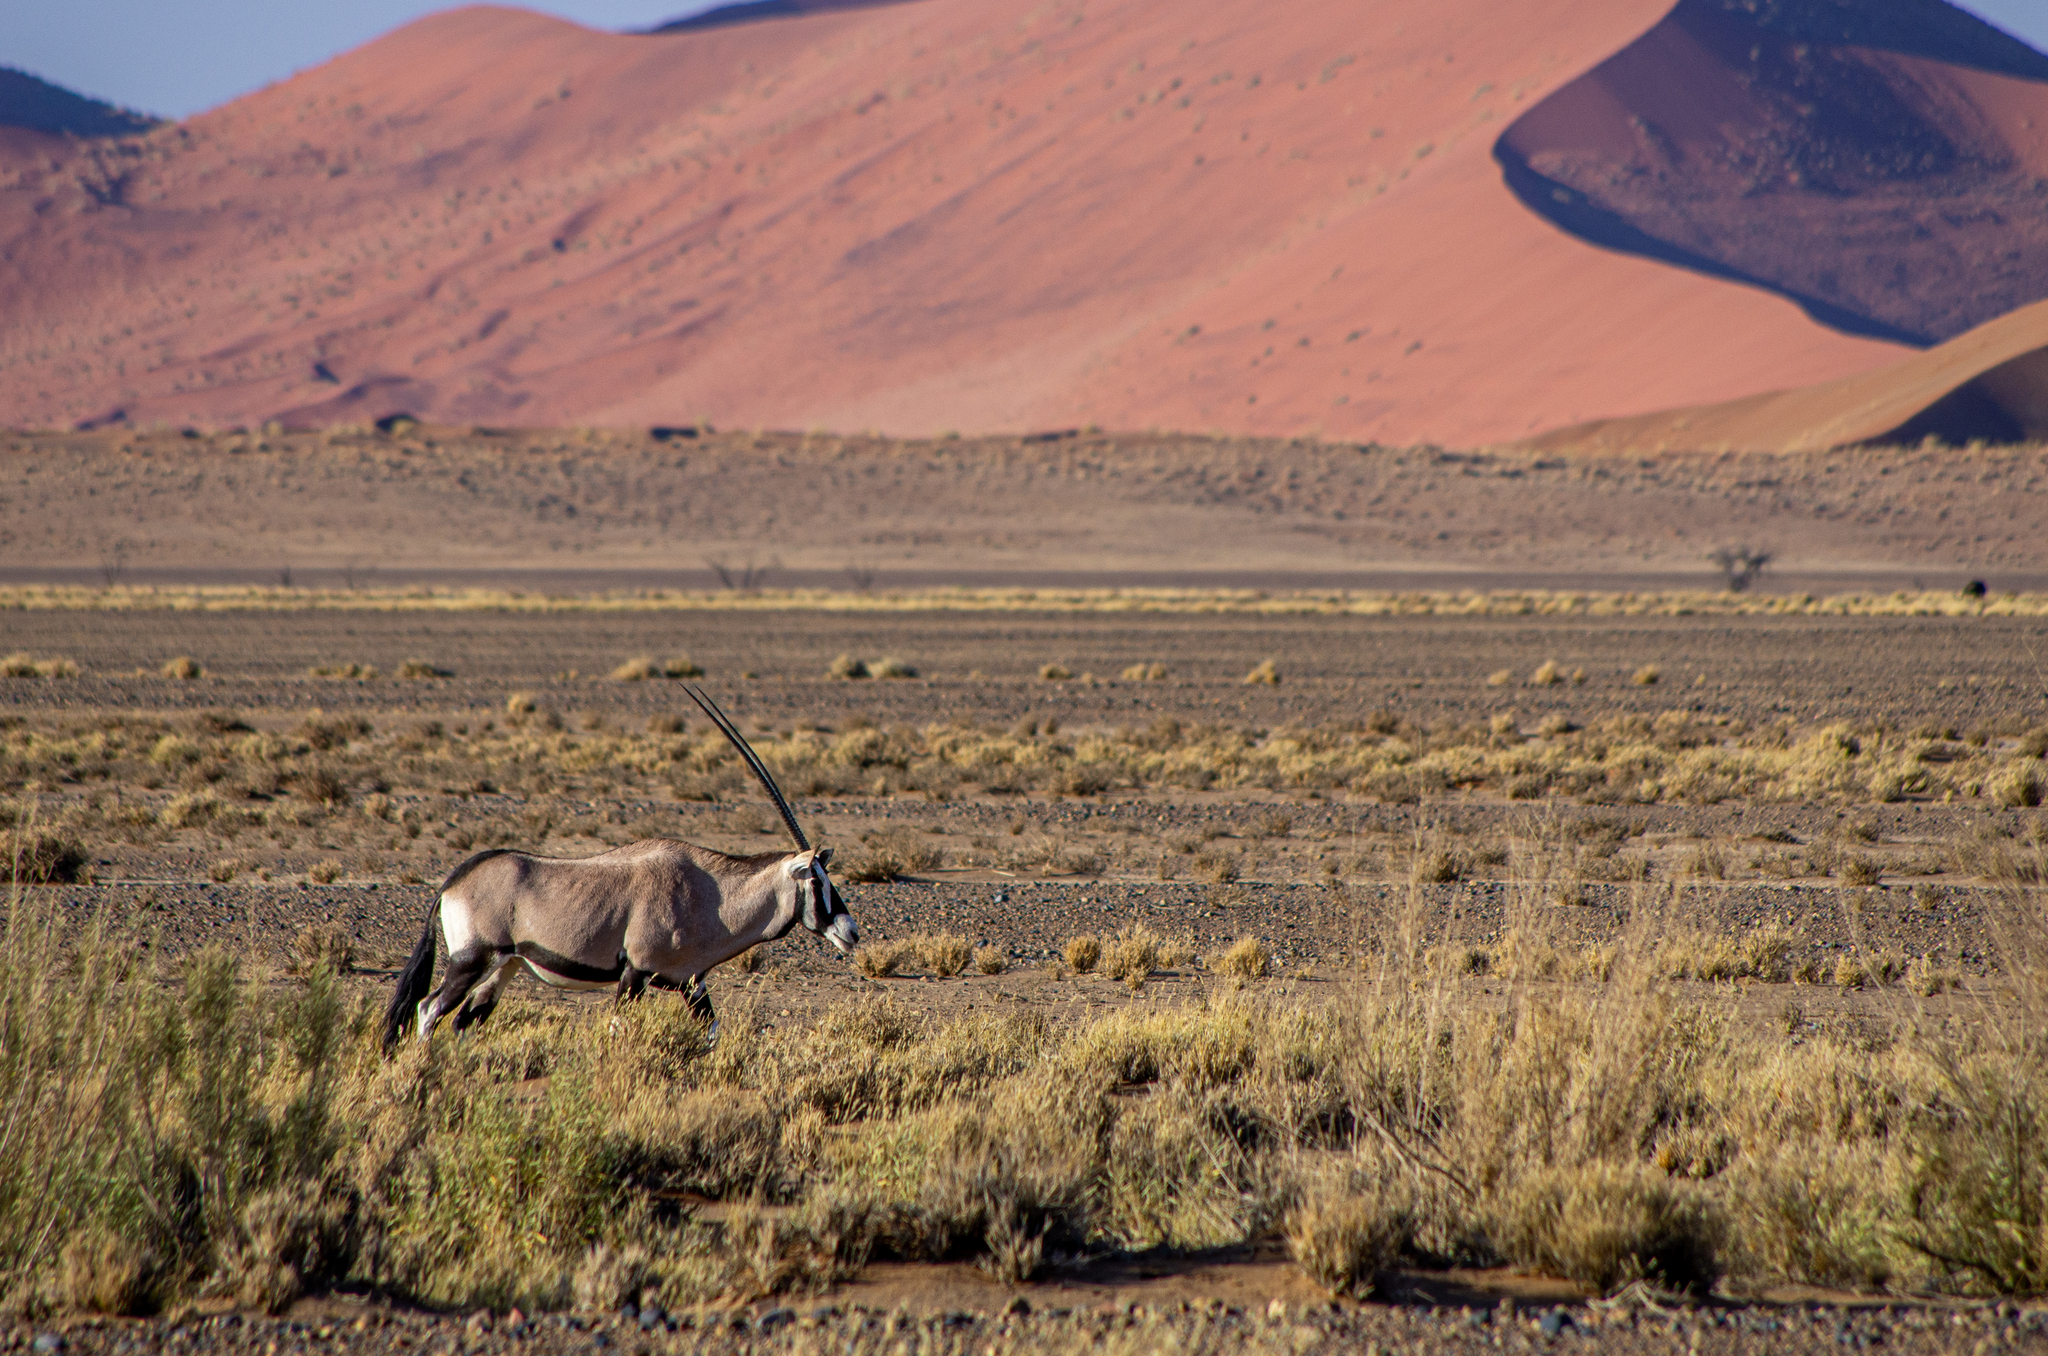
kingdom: Animalia
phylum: Chordata
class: Mammalia
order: Artiodactyla
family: Bovidae
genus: Oryx
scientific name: Oryx gazella
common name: Gemsbok
